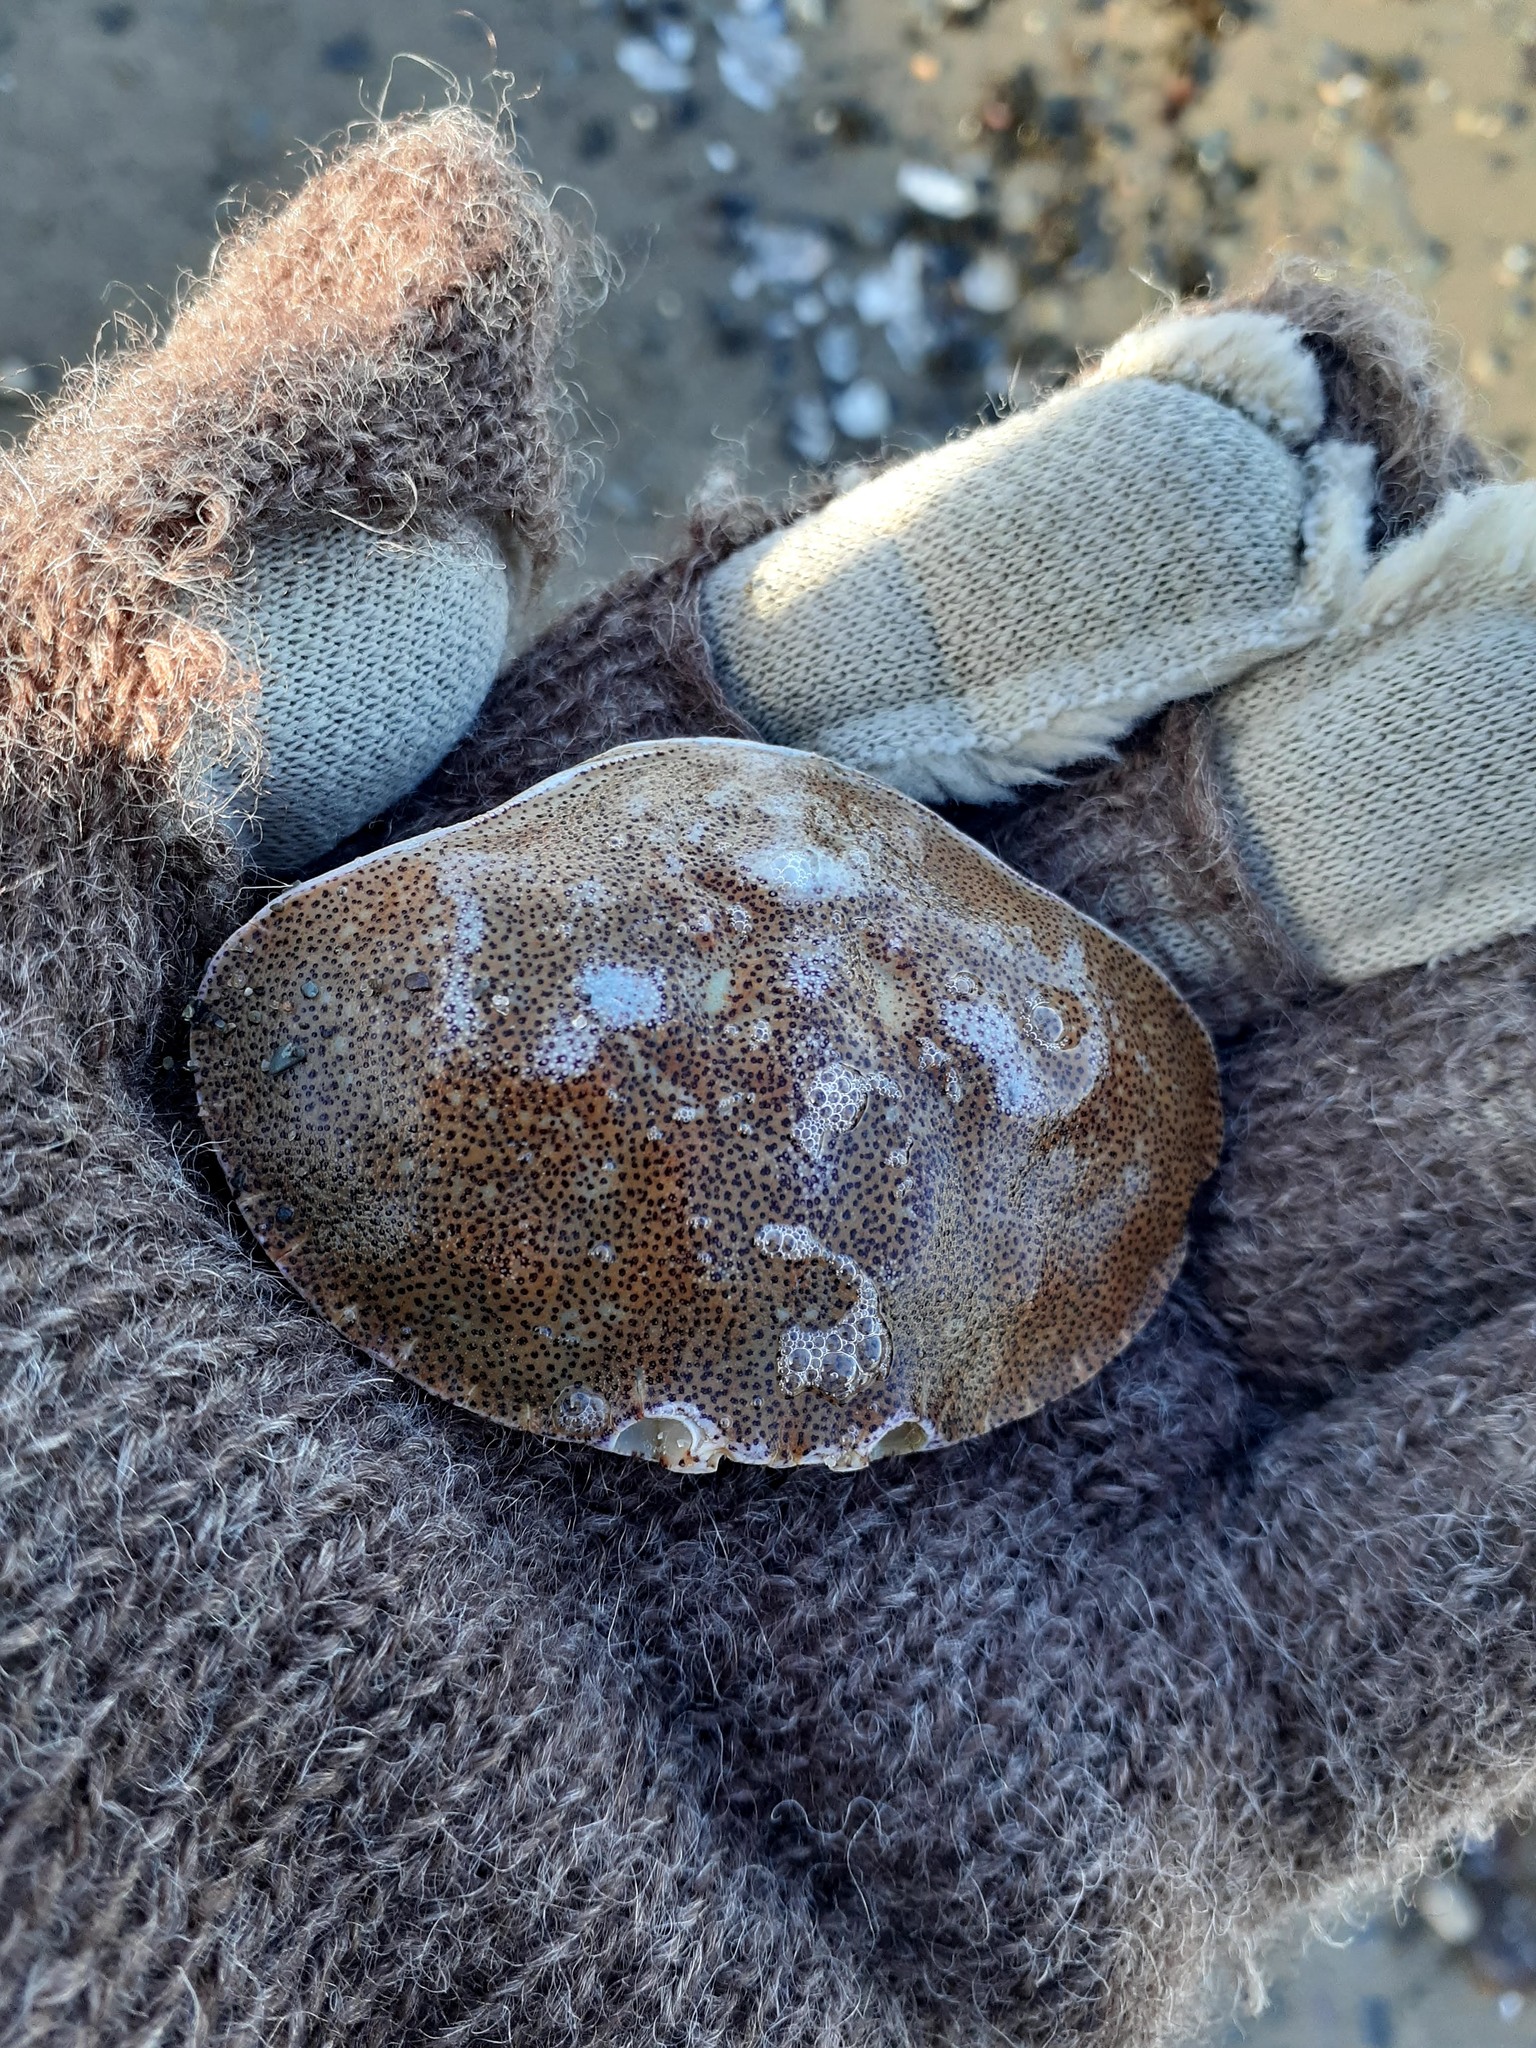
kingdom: Animalia
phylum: Arthropoda
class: Malacostraca
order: Decapoda
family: Cancridae
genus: Cancer
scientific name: Cancer irroratus
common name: Atlantic rock crab
